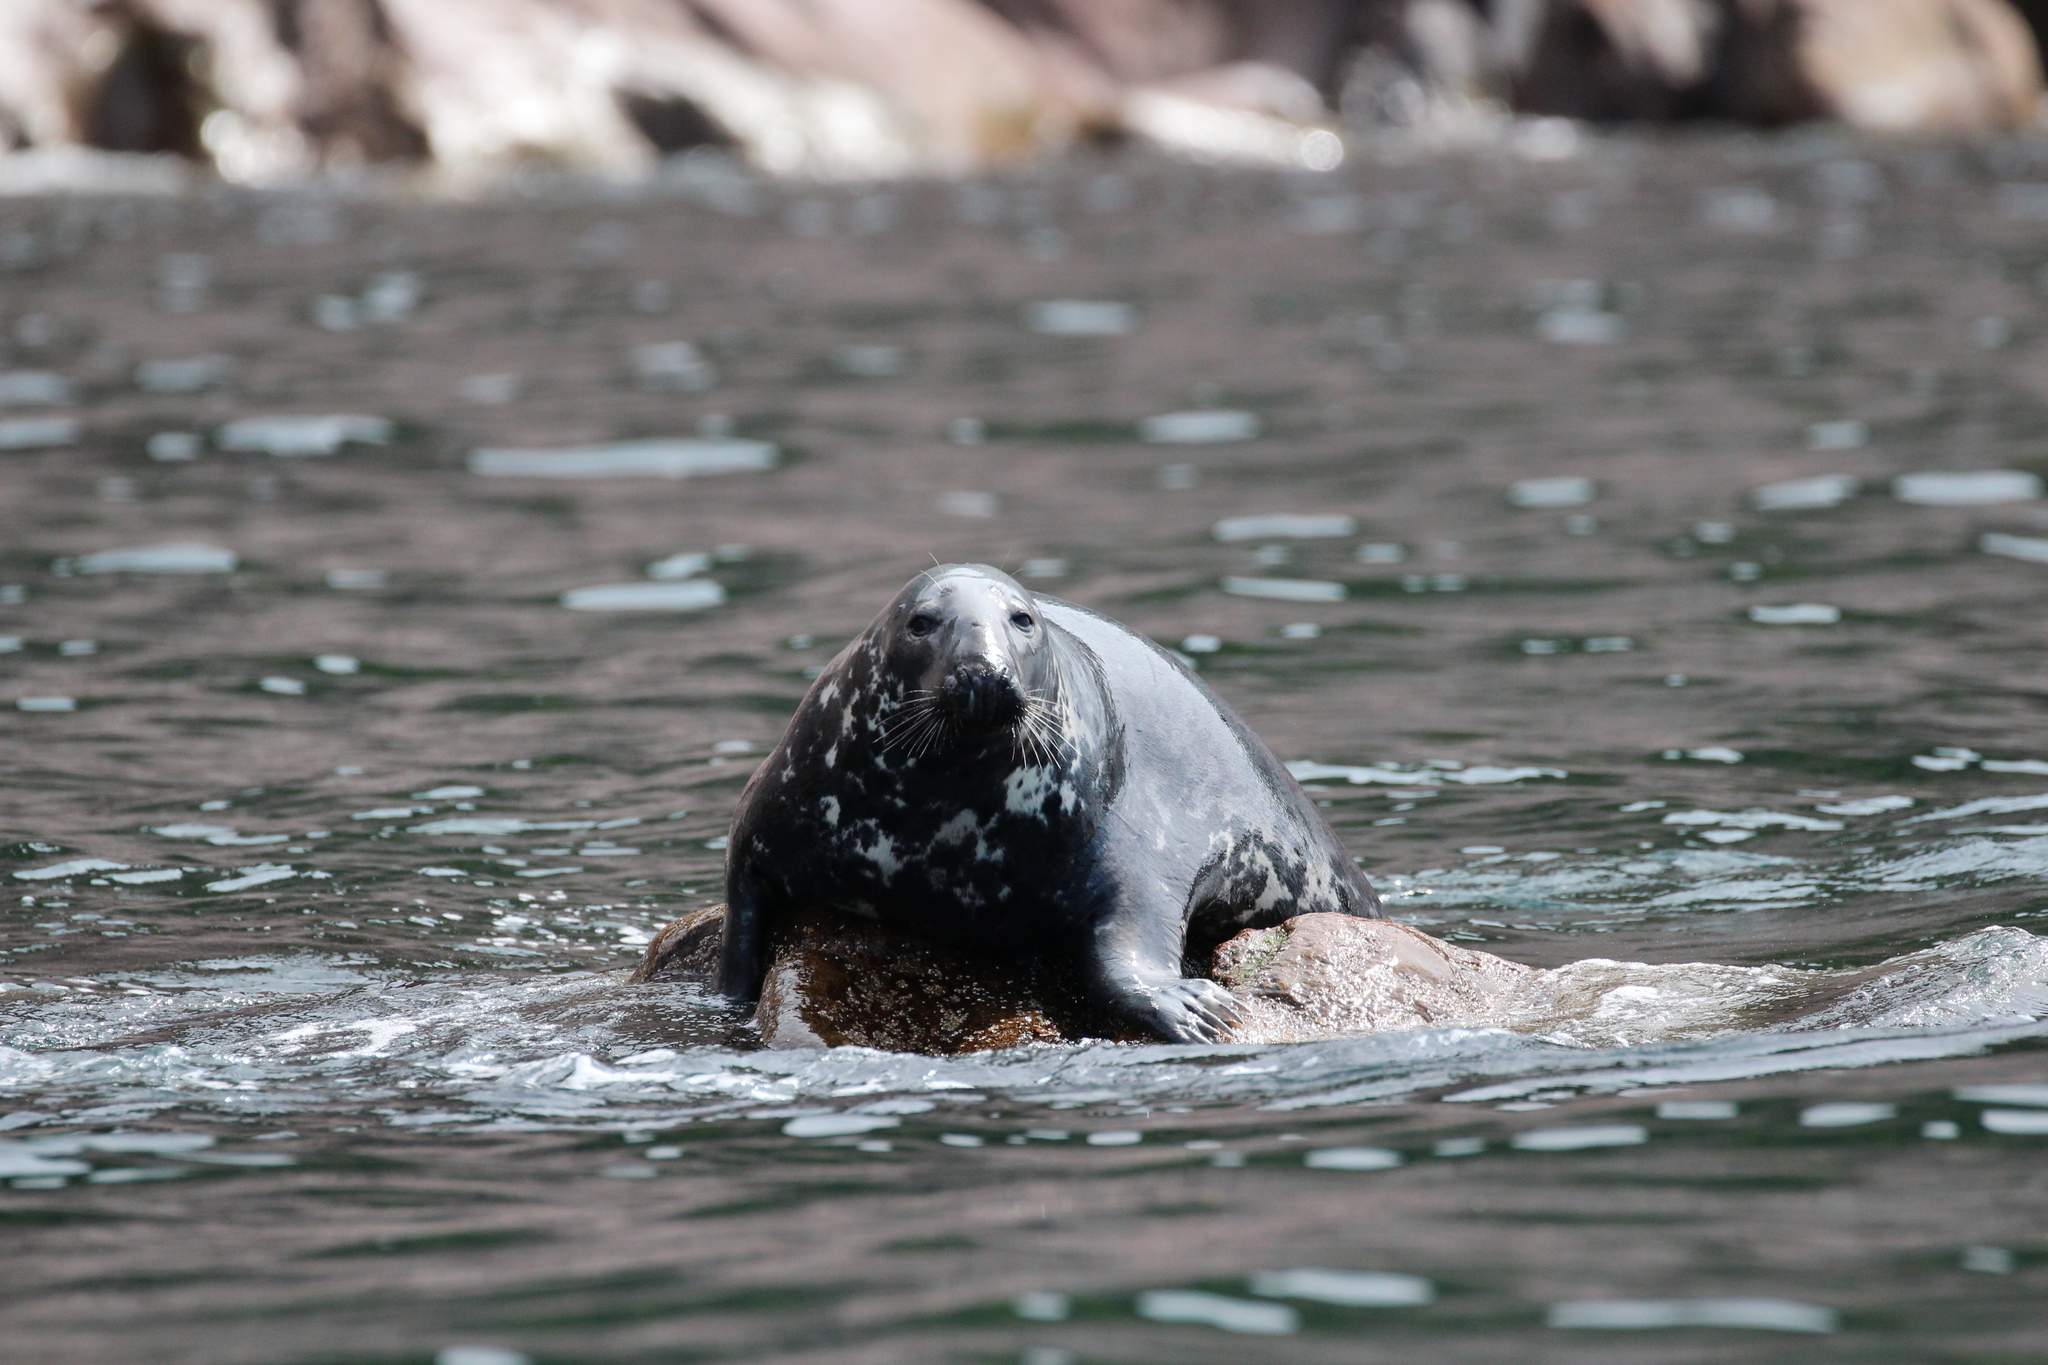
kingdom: Animalia
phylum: Chordata
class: Mammalia
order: Carnivora
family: Phocidae
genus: Halichoerus
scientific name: Halichoerus grypus
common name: Grey seal
